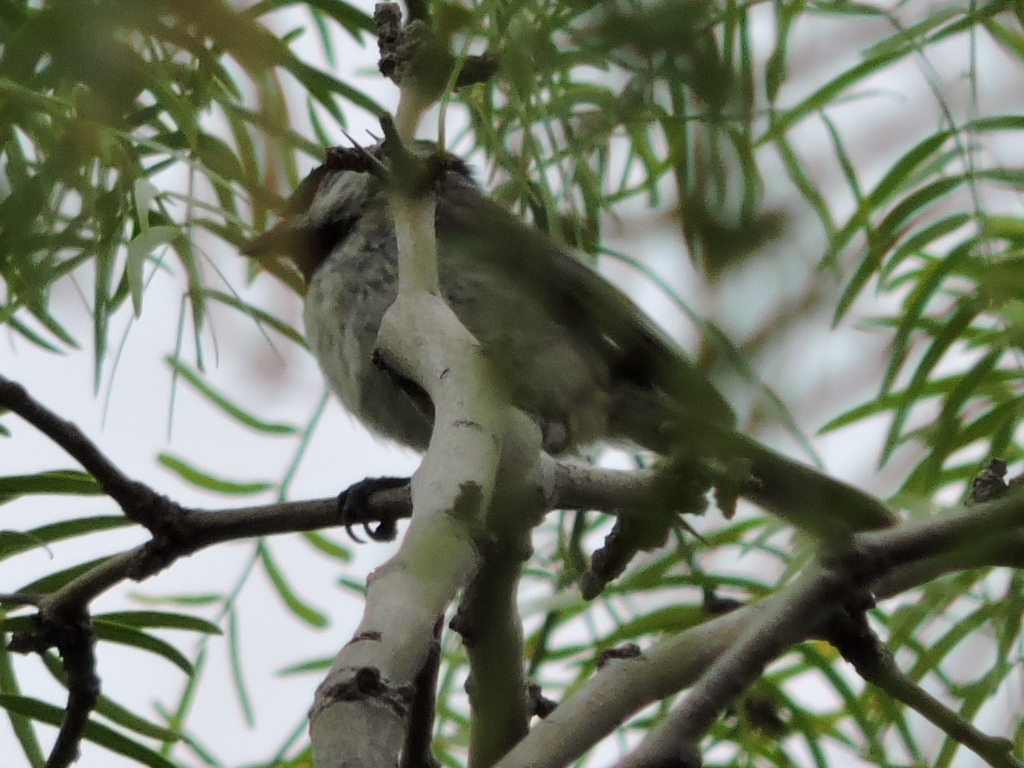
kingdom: Animalia
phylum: Chordata
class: Aves
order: Passeriformes
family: Paridae
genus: Poecile
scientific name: Poecile carolinensis
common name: Carolina chickadee
